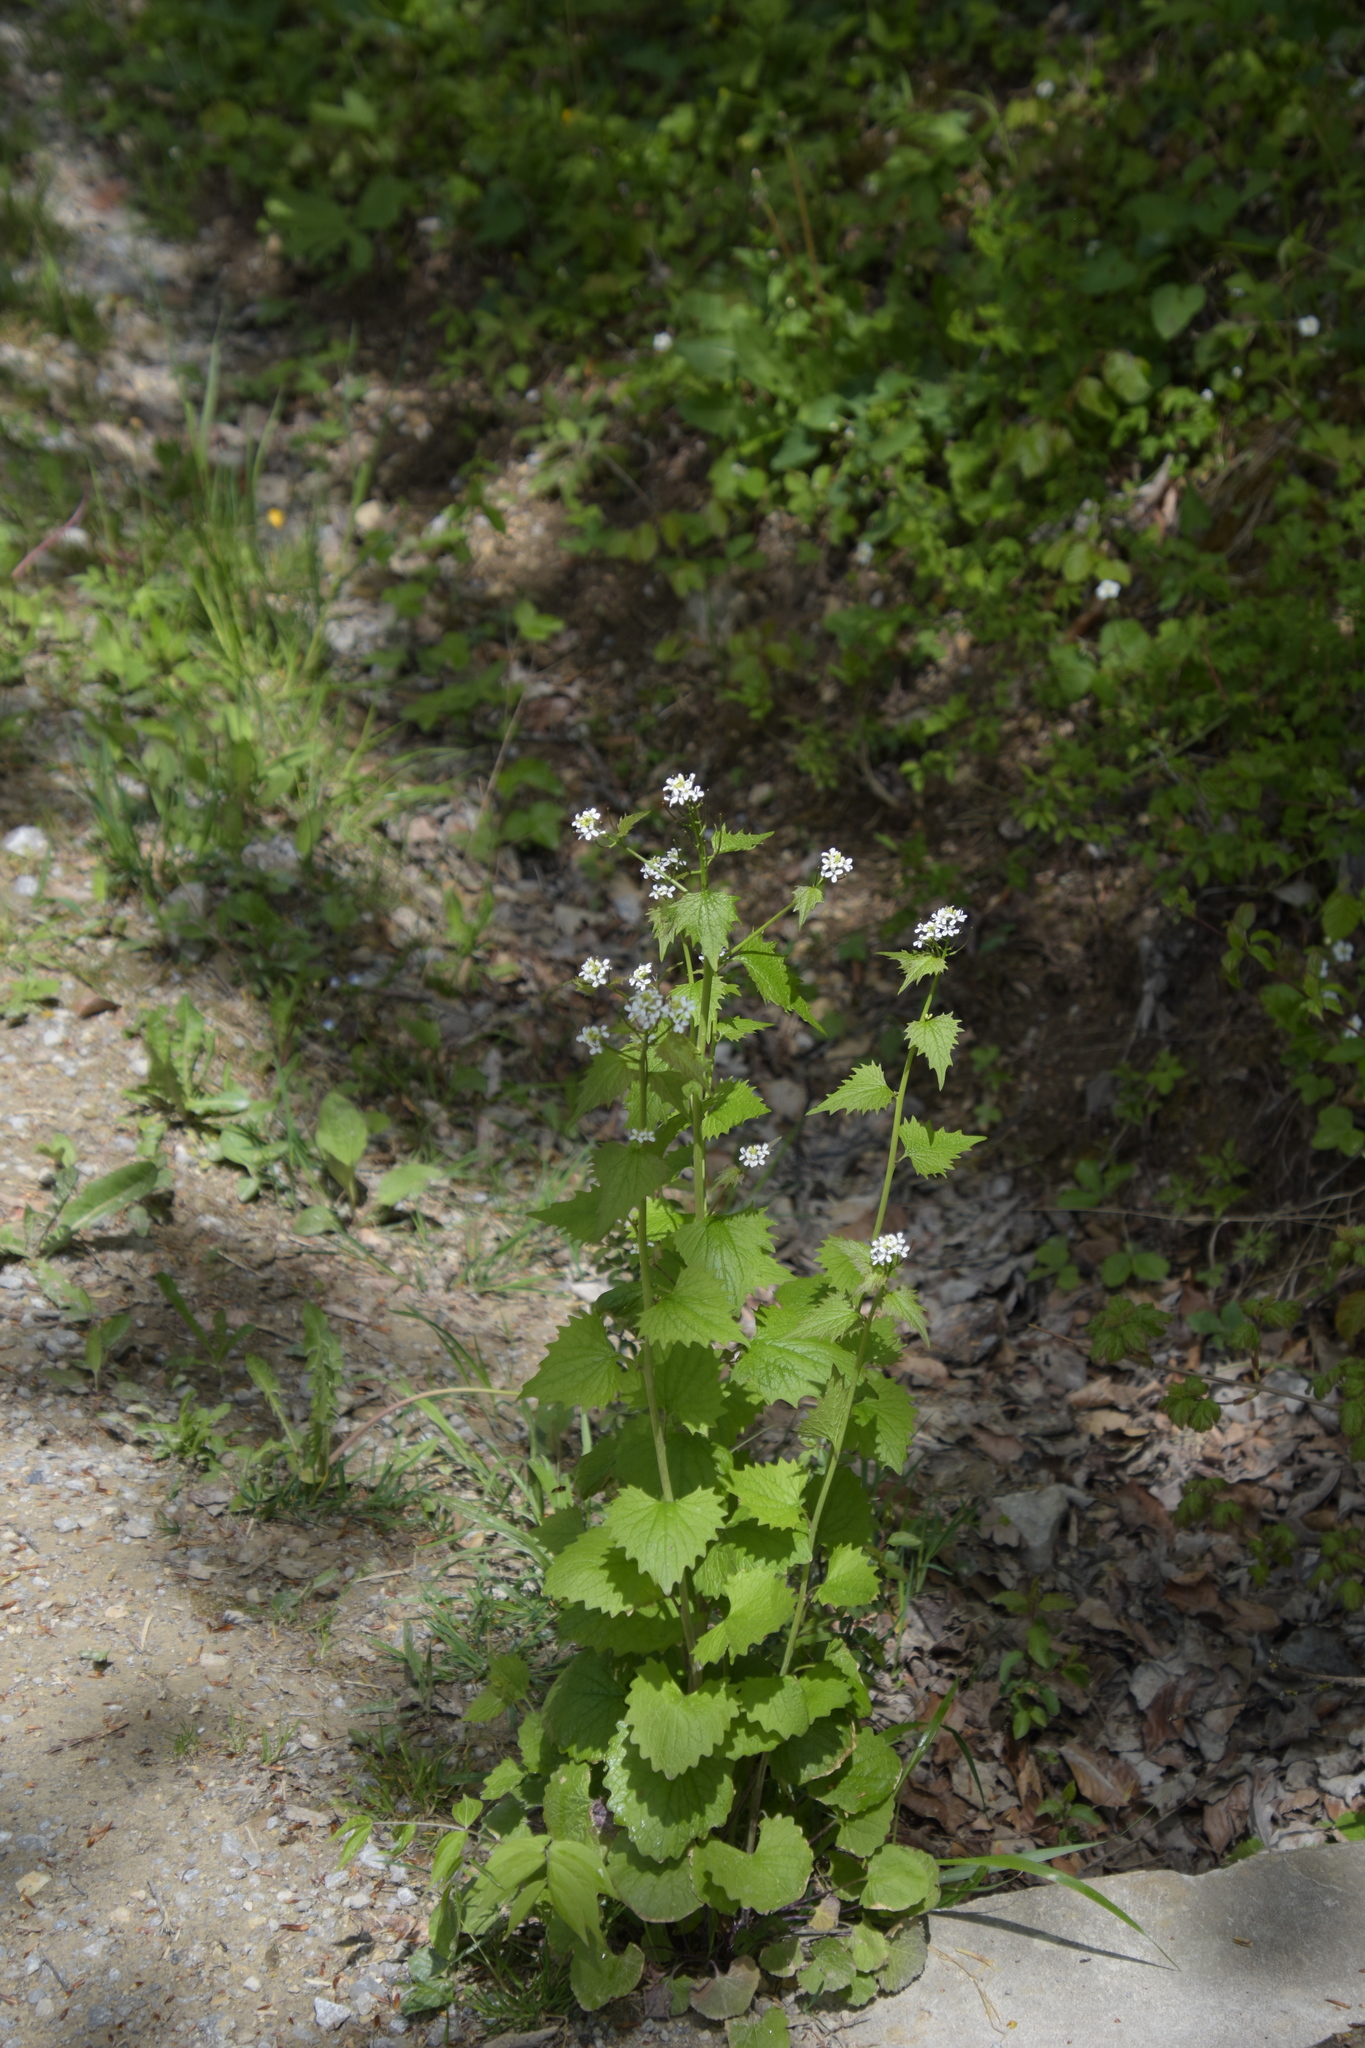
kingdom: Plantae
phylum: Tracheophyta
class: Magnoliopsida
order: Brassicales
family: Brassicaceae
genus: Alliaria
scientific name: Alliaria petiolata
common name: Garlic mustard
